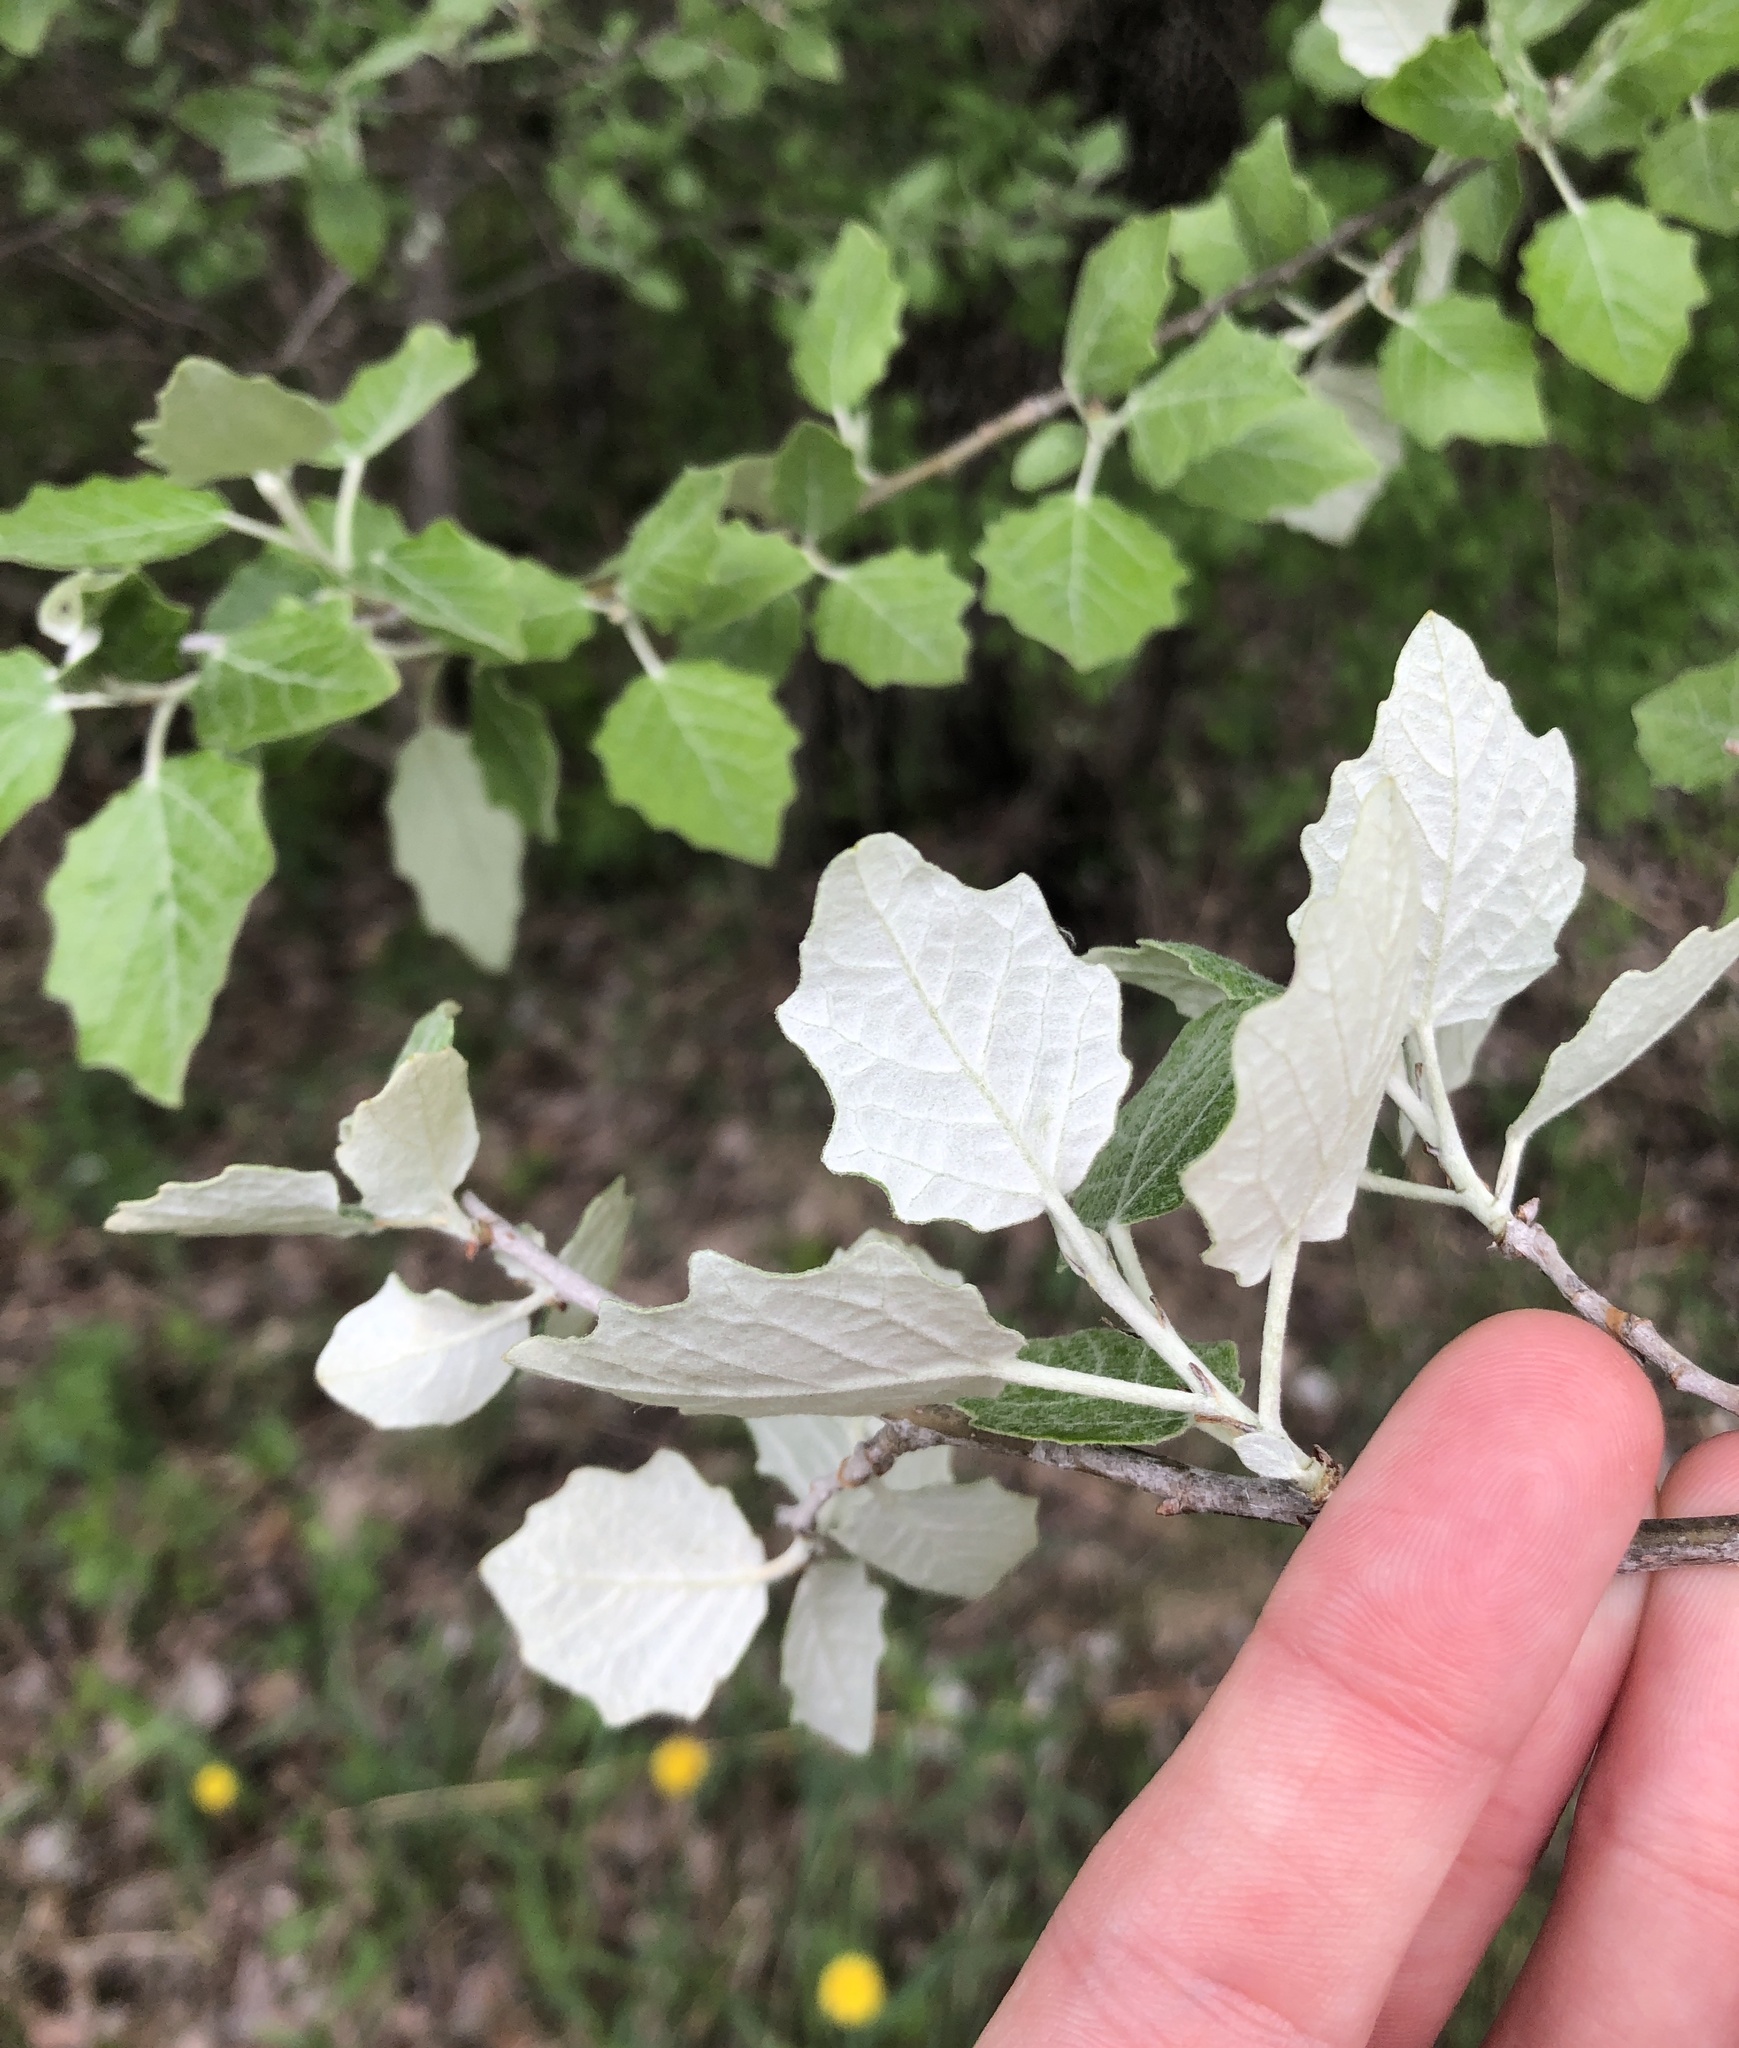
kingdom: Plantae
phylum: Tracheophyta
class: Magnoliopsida
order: Malpighiales
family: Salicaceae
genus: Populus
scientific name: Populus alba
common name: White poplar
